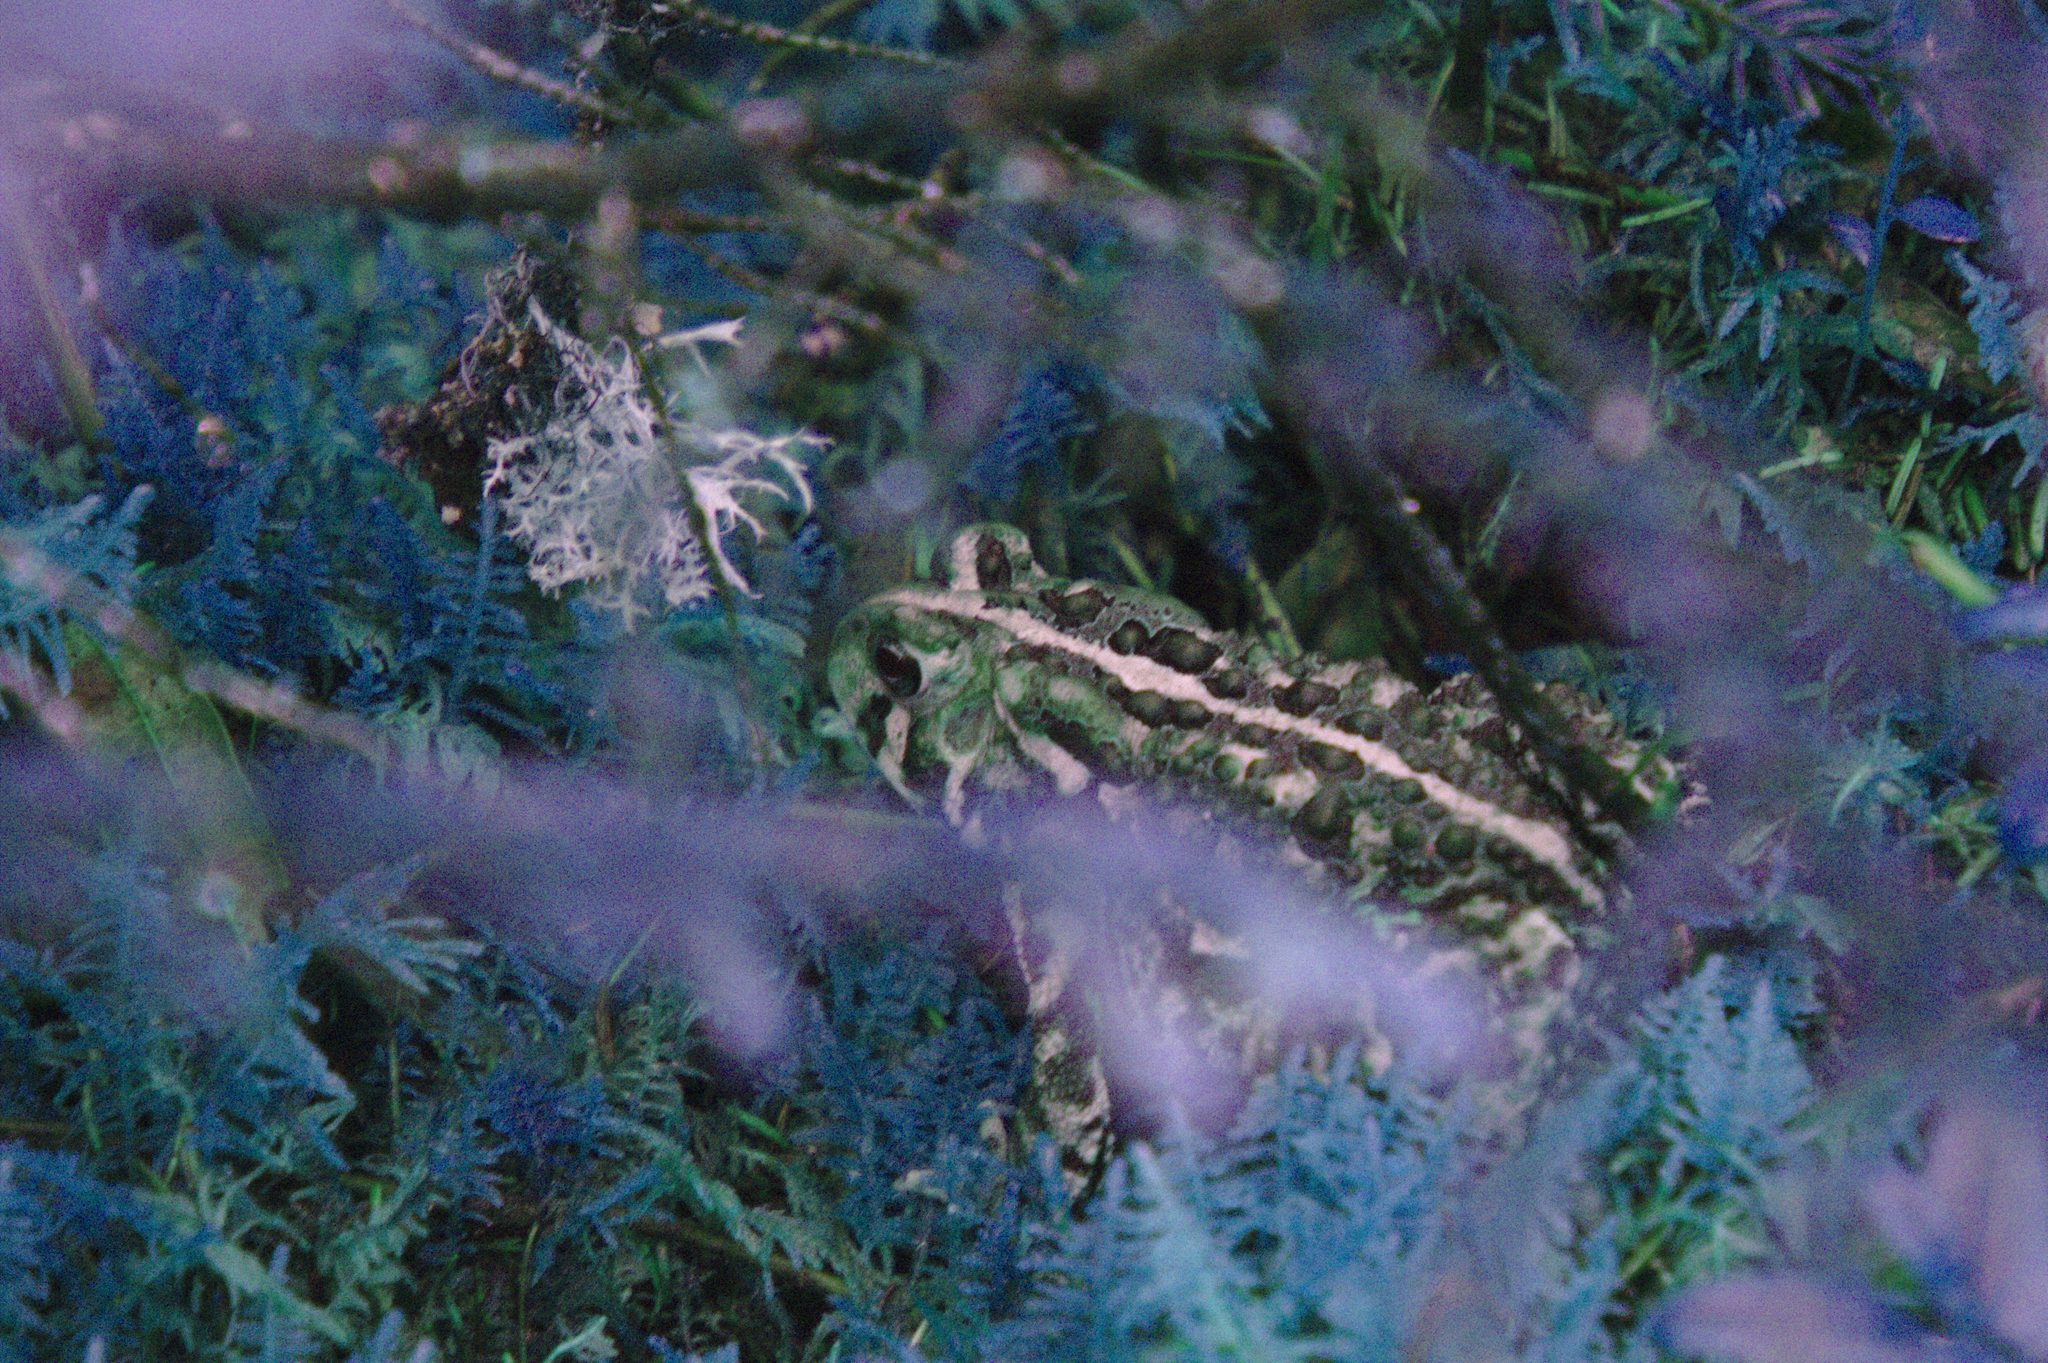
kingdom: Animalia
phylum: Chordata
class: Amphibia
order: Anura
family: Bufonidae
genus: Anaxyrus
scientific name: Anaxyrus americanus
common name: American toad
